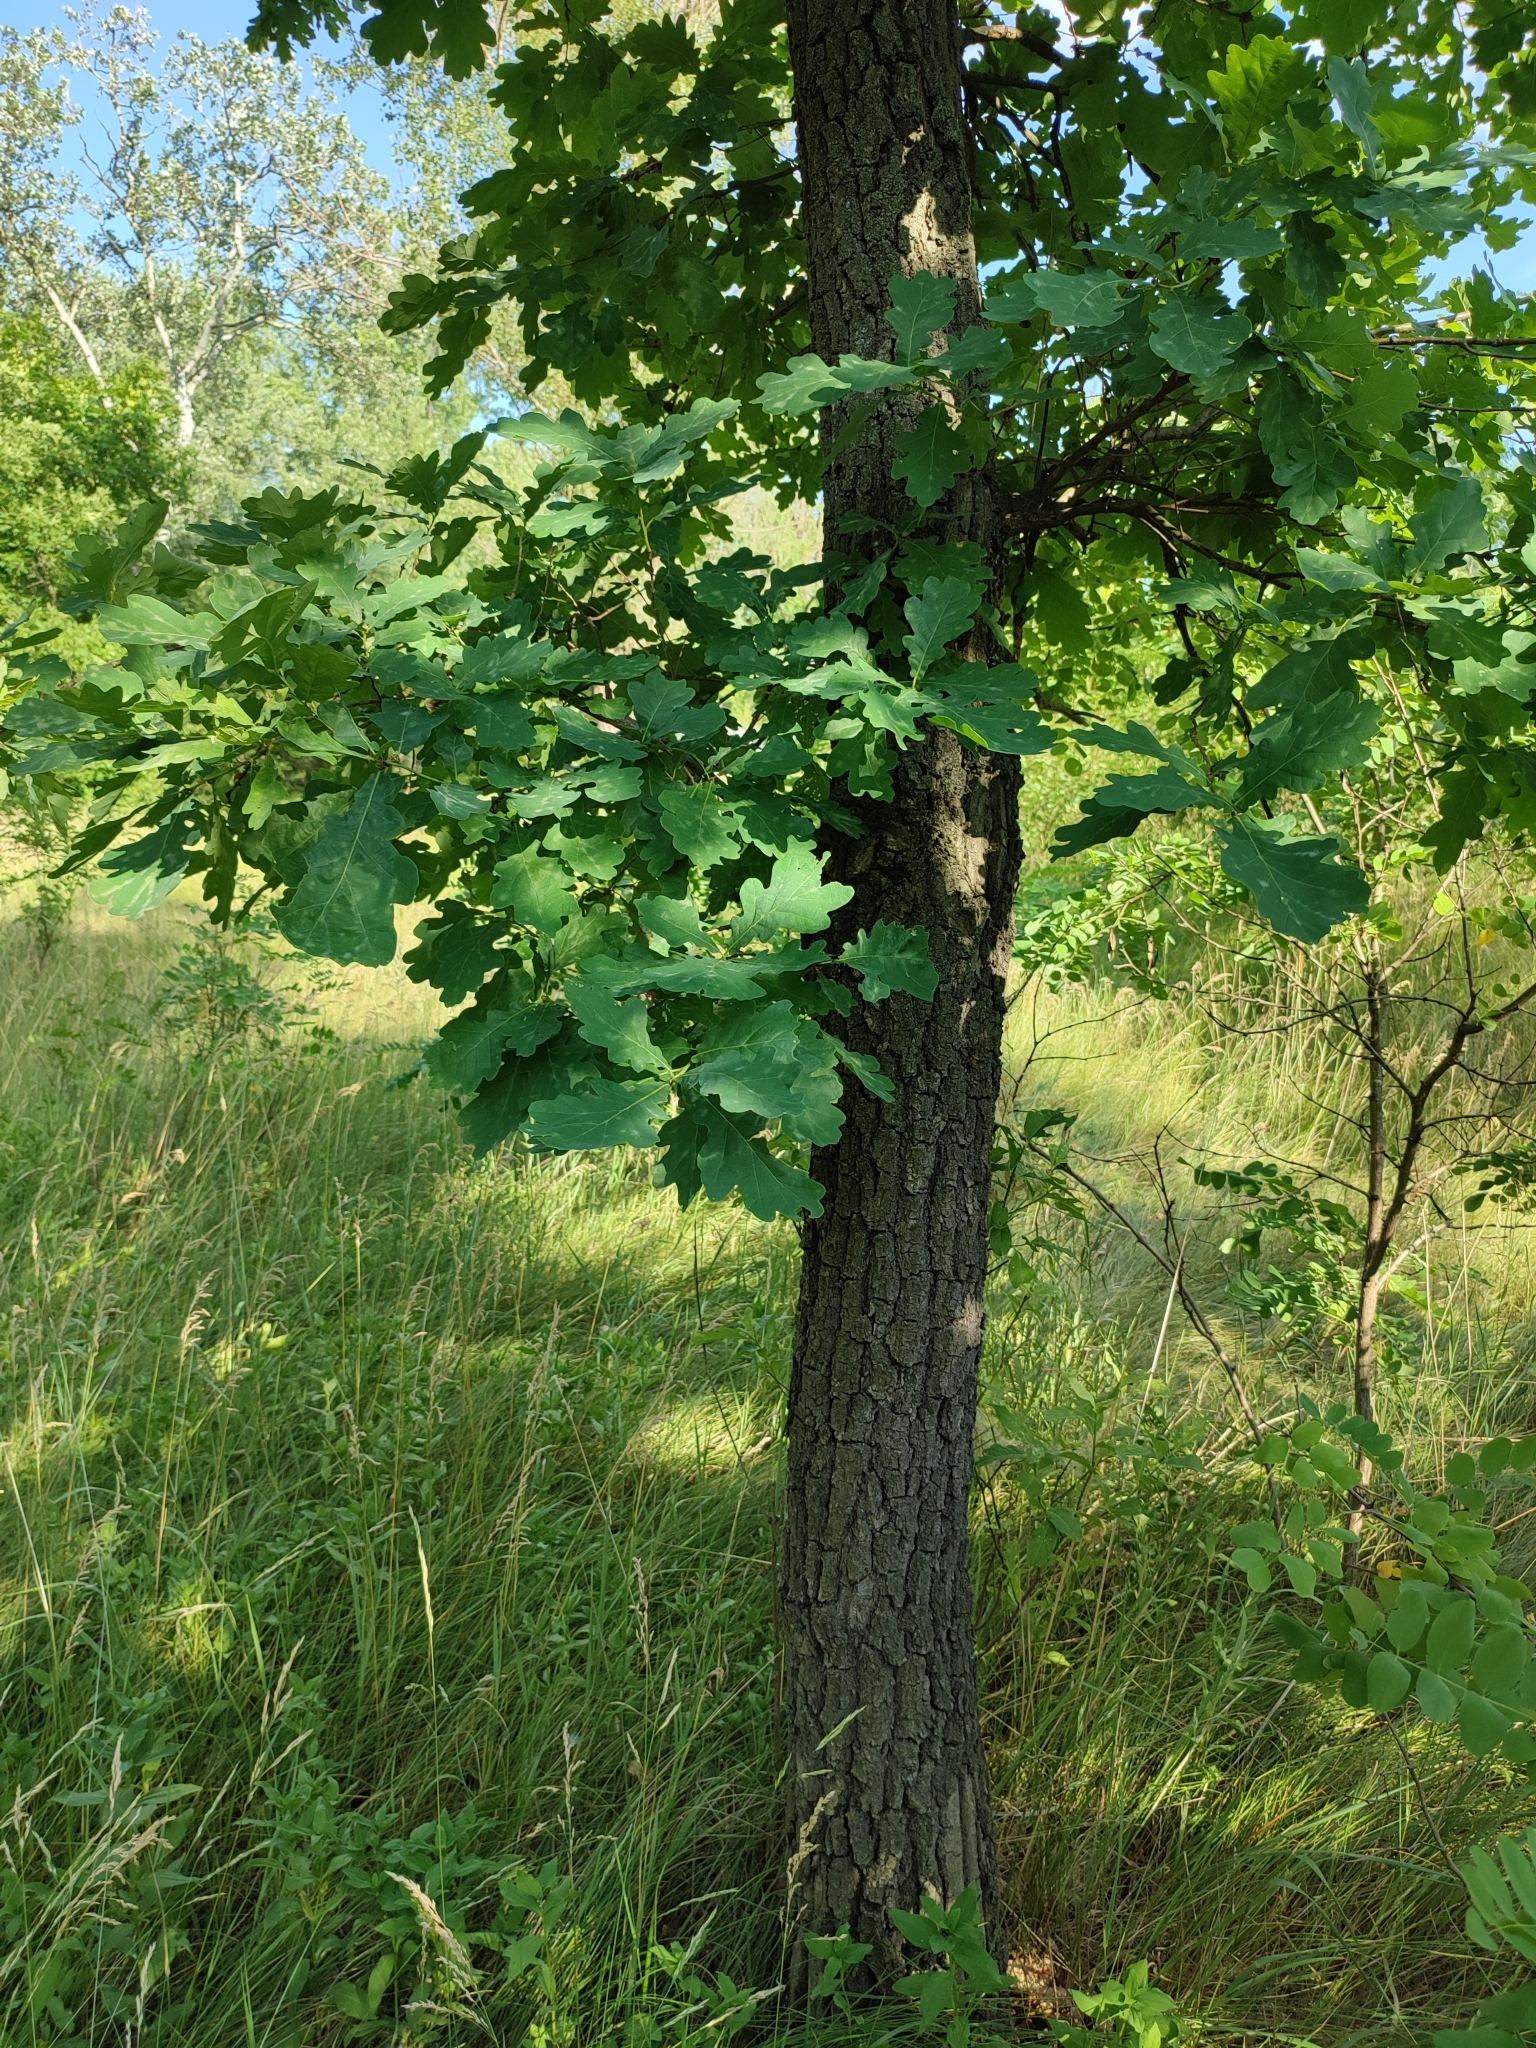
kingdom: Plantae
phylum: Tracheophyta
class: Magnoliopsida
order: Fagales
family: Fagaceae
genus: Quercus
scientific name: Quercus robur
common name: Pedunculate oak
